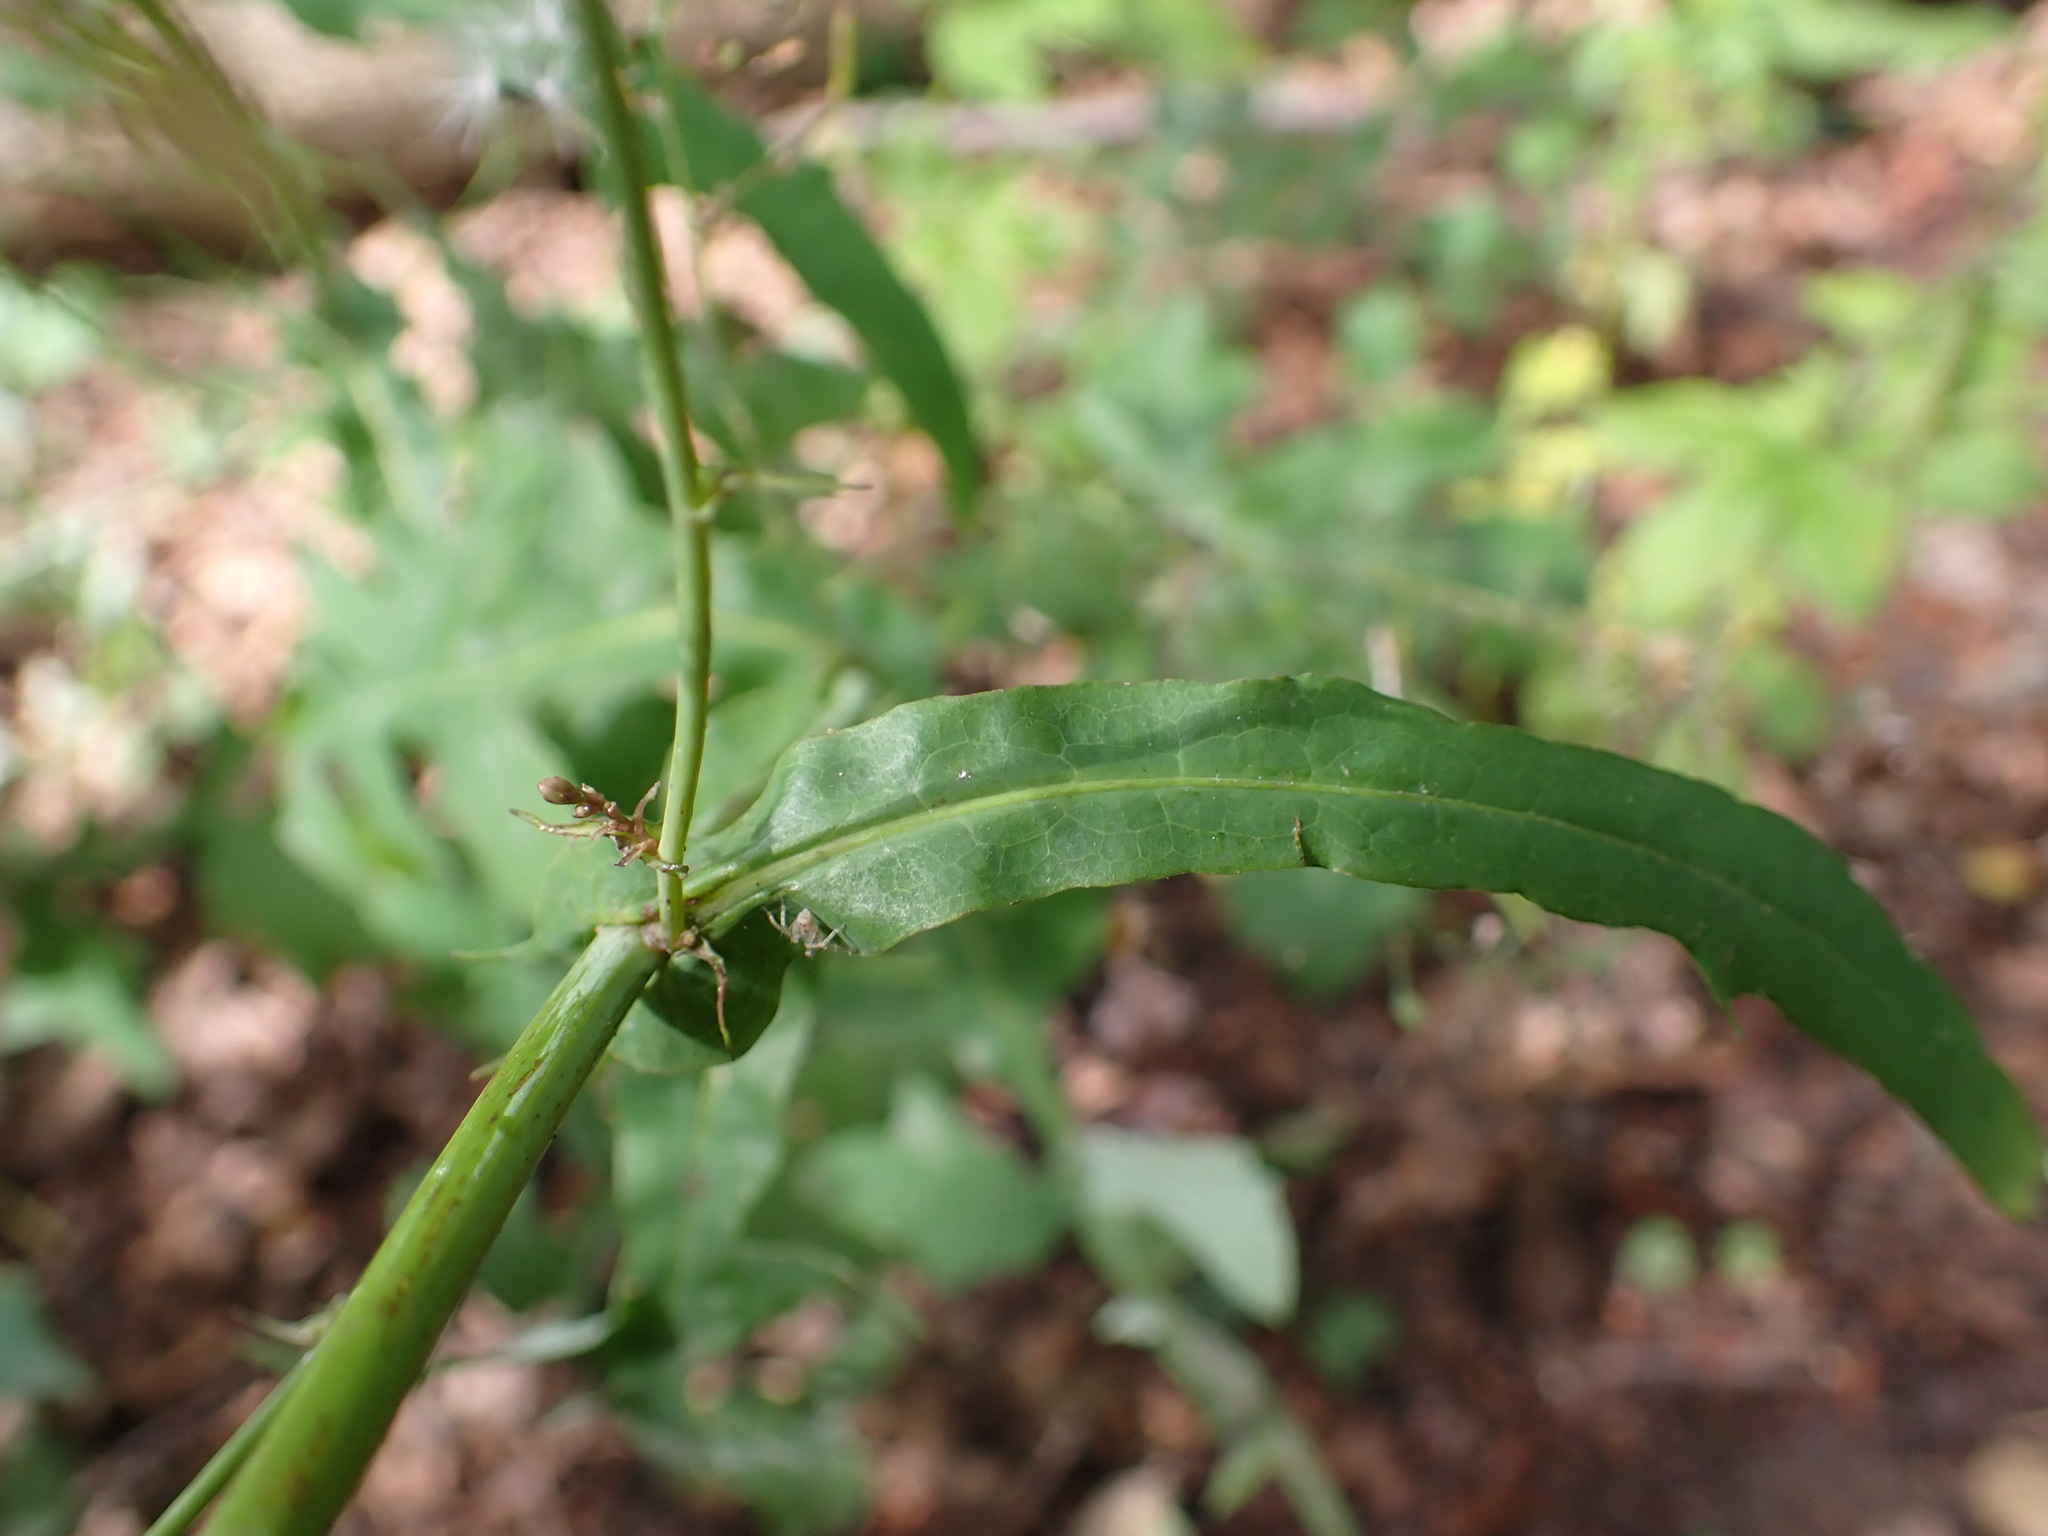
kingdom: Plantae
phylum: Tracheophyta
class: Magnoliopsida
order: Asterales
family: Asteraceae
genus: Mycelis
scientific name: Mycelis muralis
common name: Wall lettuce
